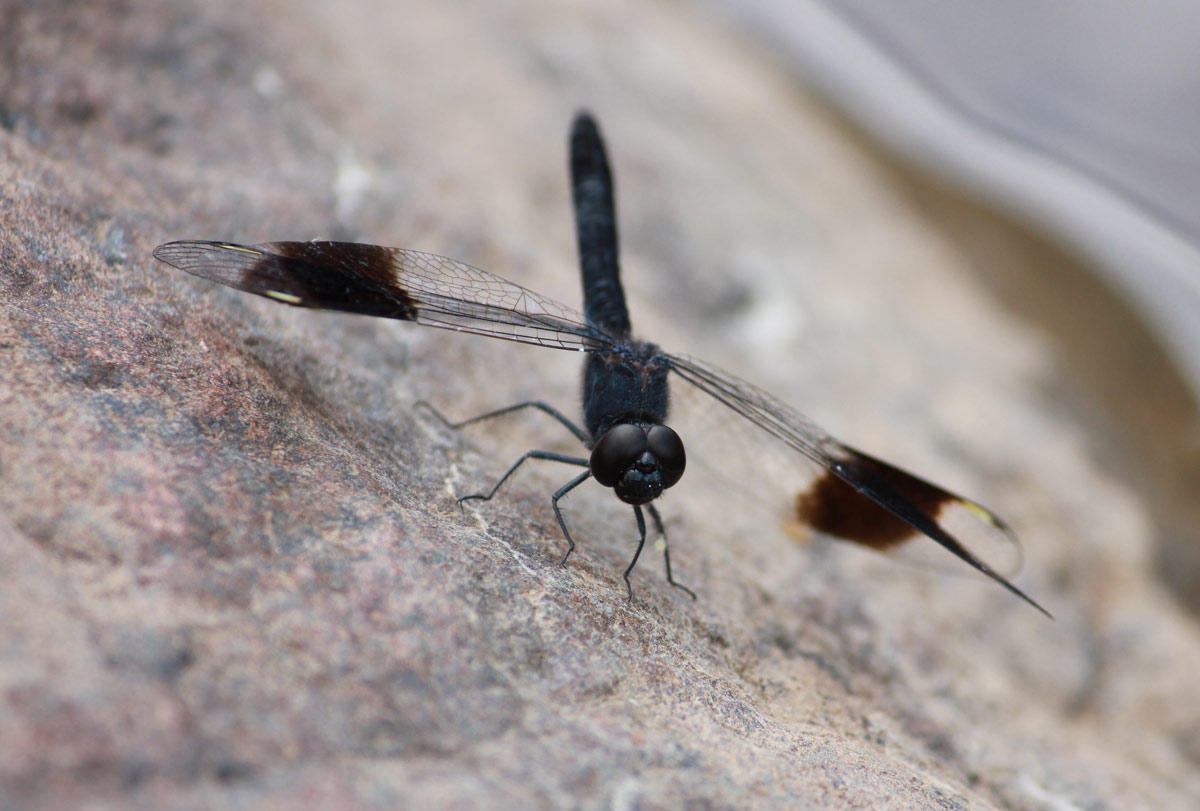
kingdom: Animalia
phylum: Arthropoda
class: Insecta
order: Odonata
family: Libellulidae
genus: Brachythemis
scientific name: Brachythemis leucosticta
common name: Banded groundling
